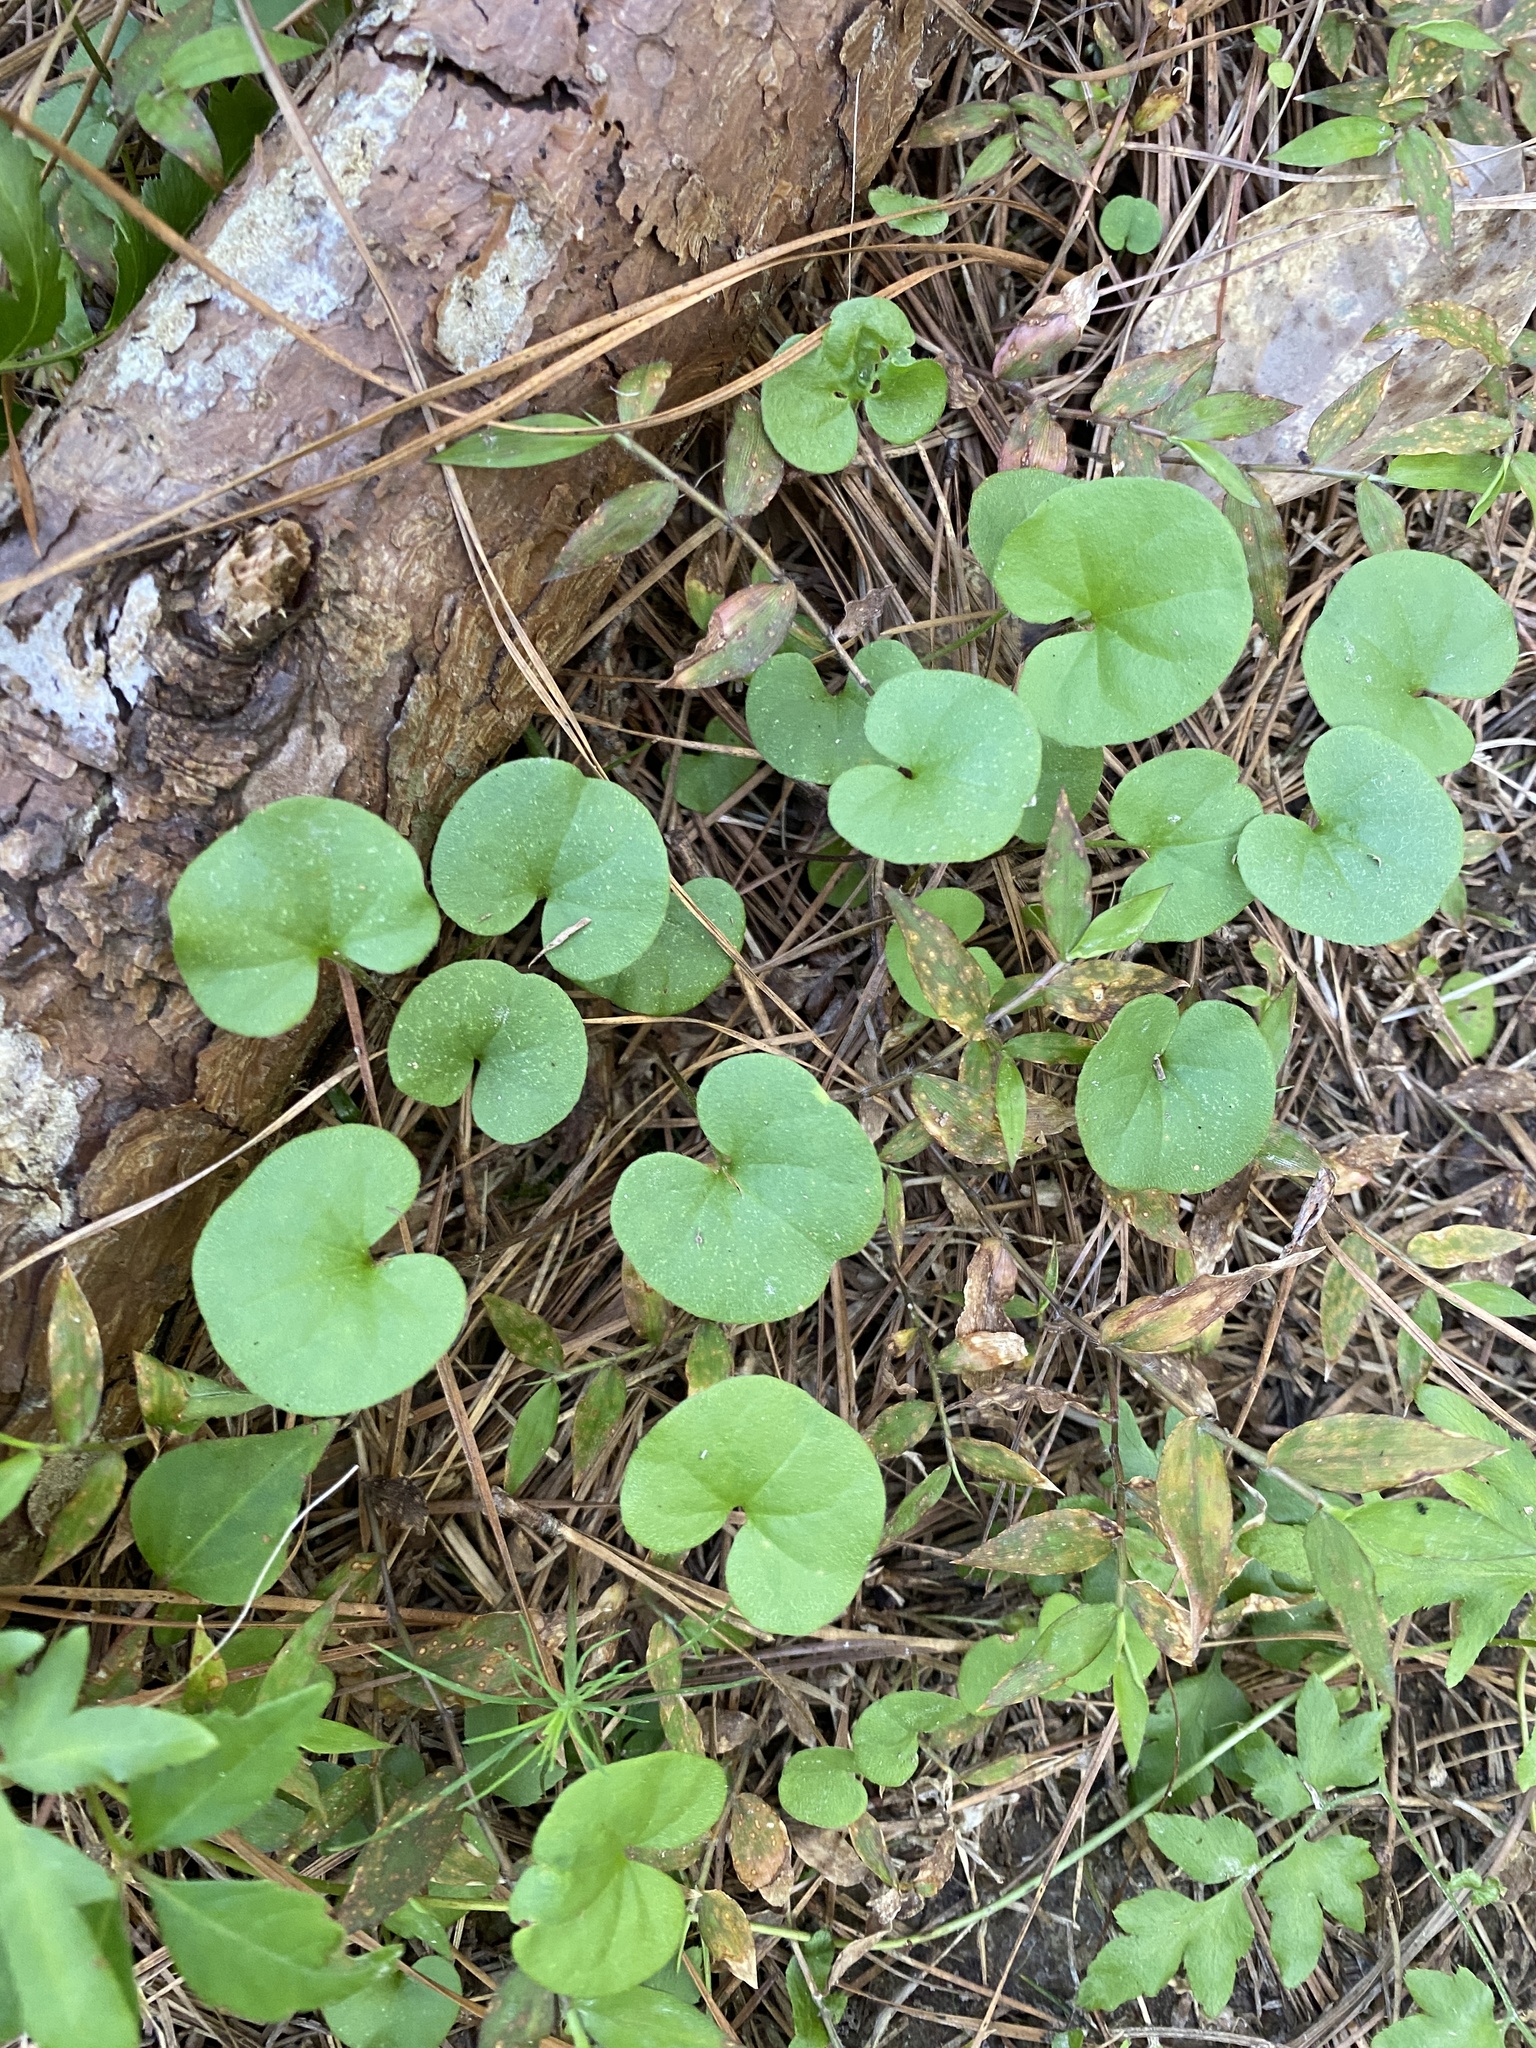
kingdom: Plantae
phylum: Tracheophyta
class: Magnoliopsida
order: Solanales
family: Convolvulaceae
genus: Dichondra
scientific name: Dichondra carolinensis
